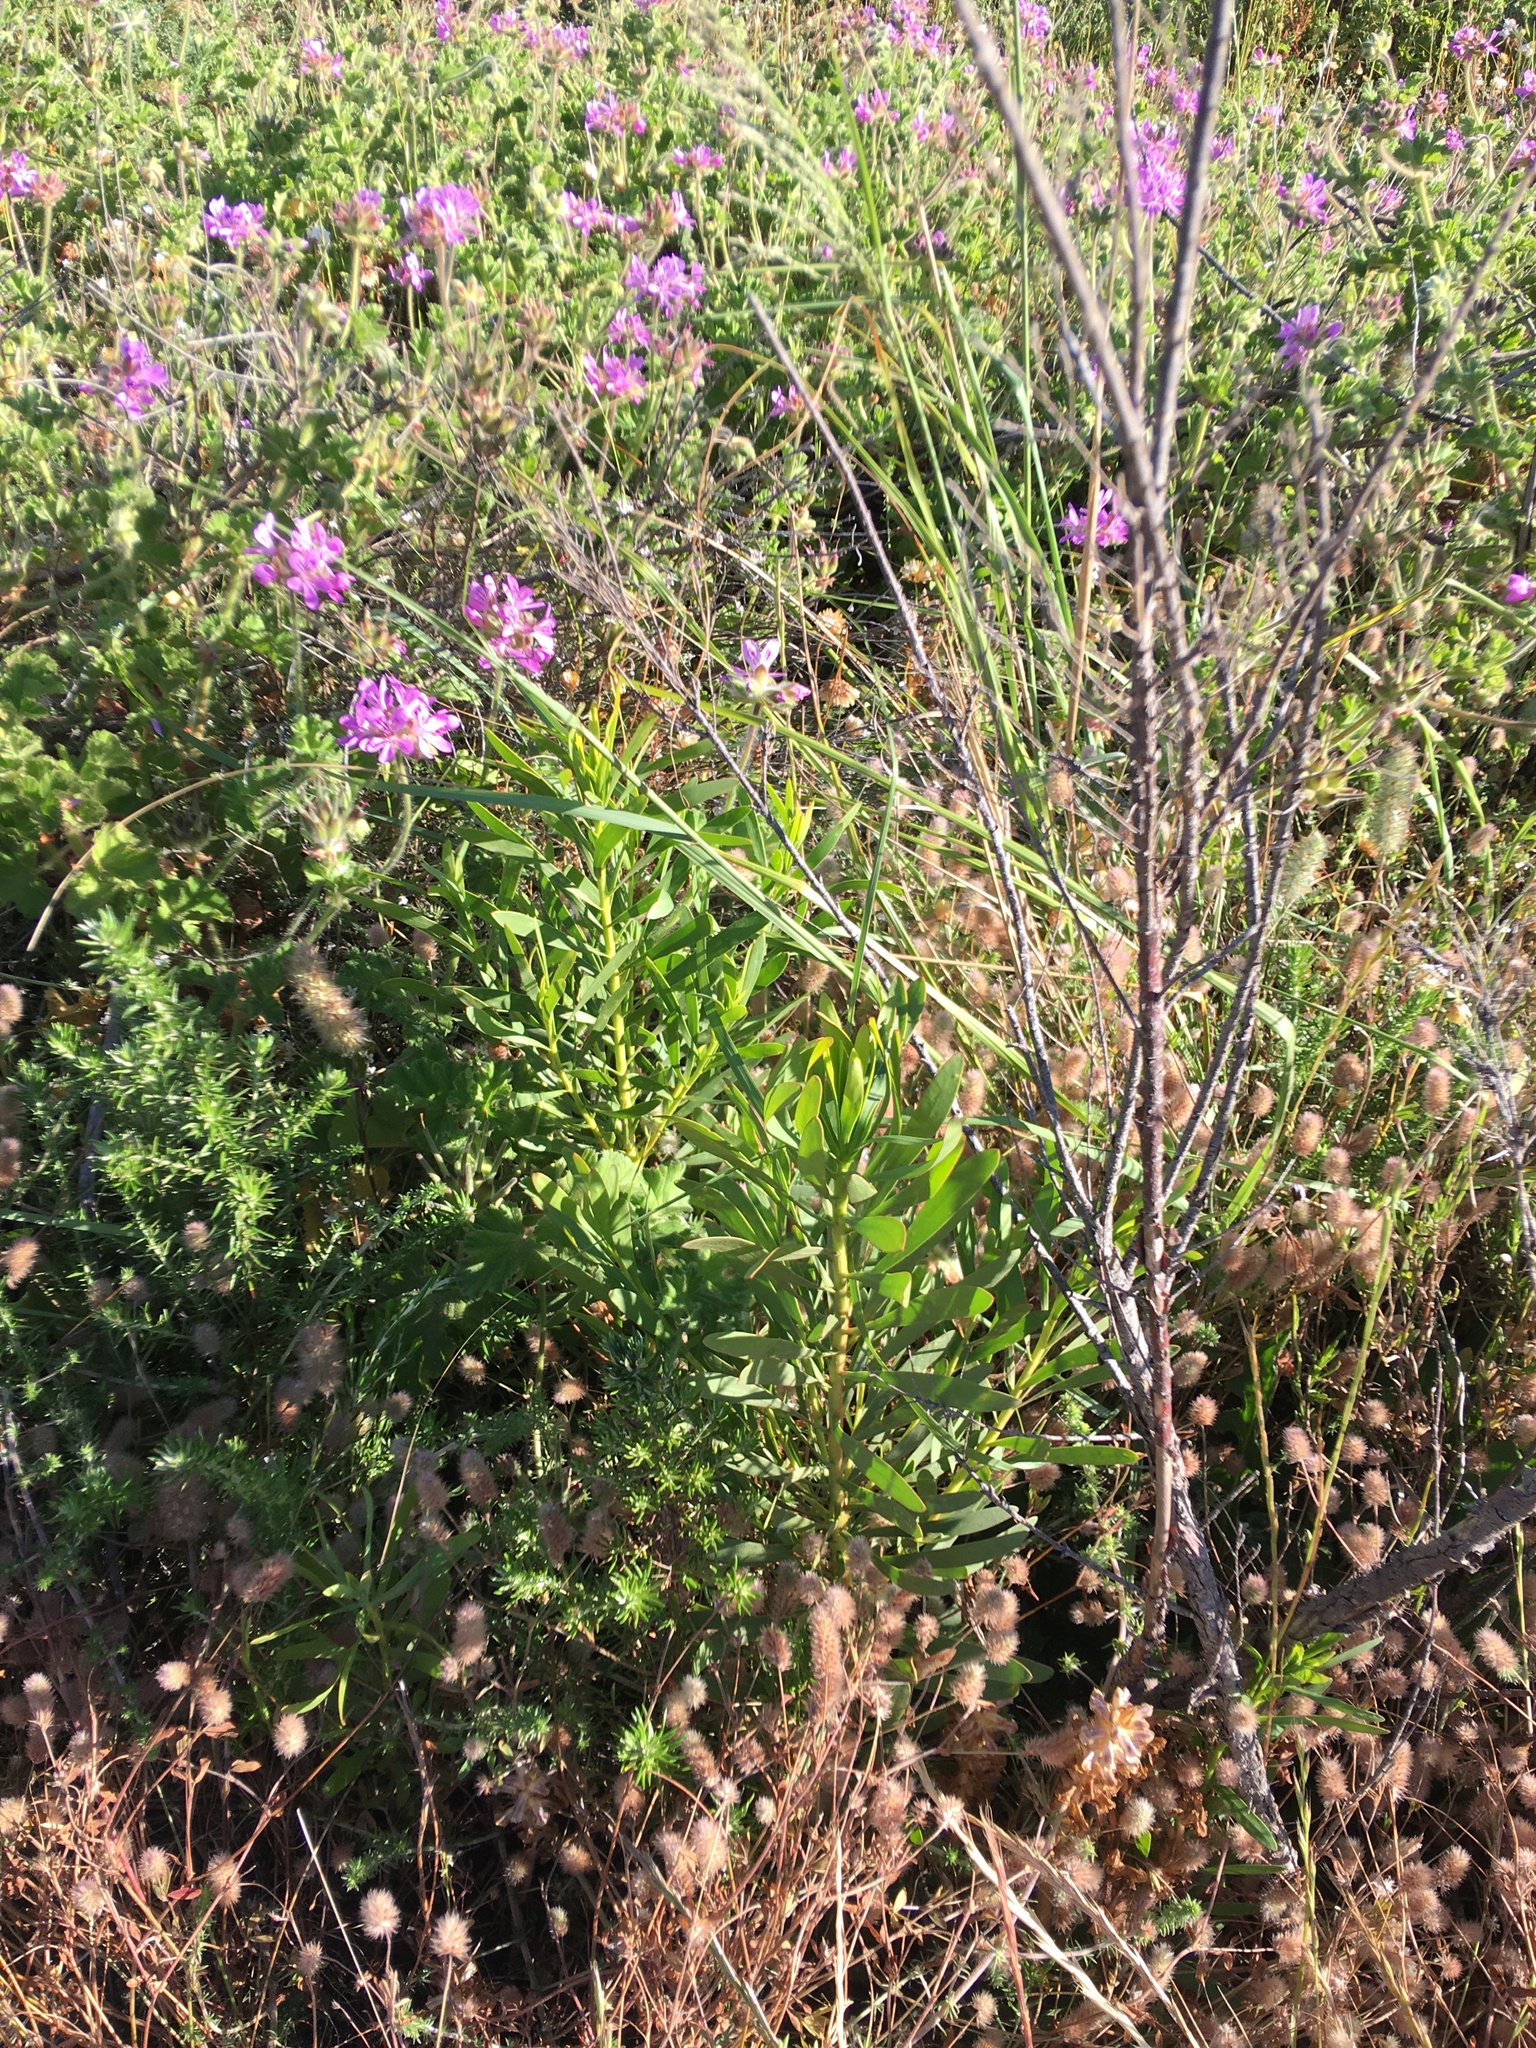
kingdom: Plantae
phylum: Tracheophyta
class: Magnoliopsida
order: Proteales
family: Proteaceae
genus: Protea
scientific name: Protea repens
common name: Sugarbush
